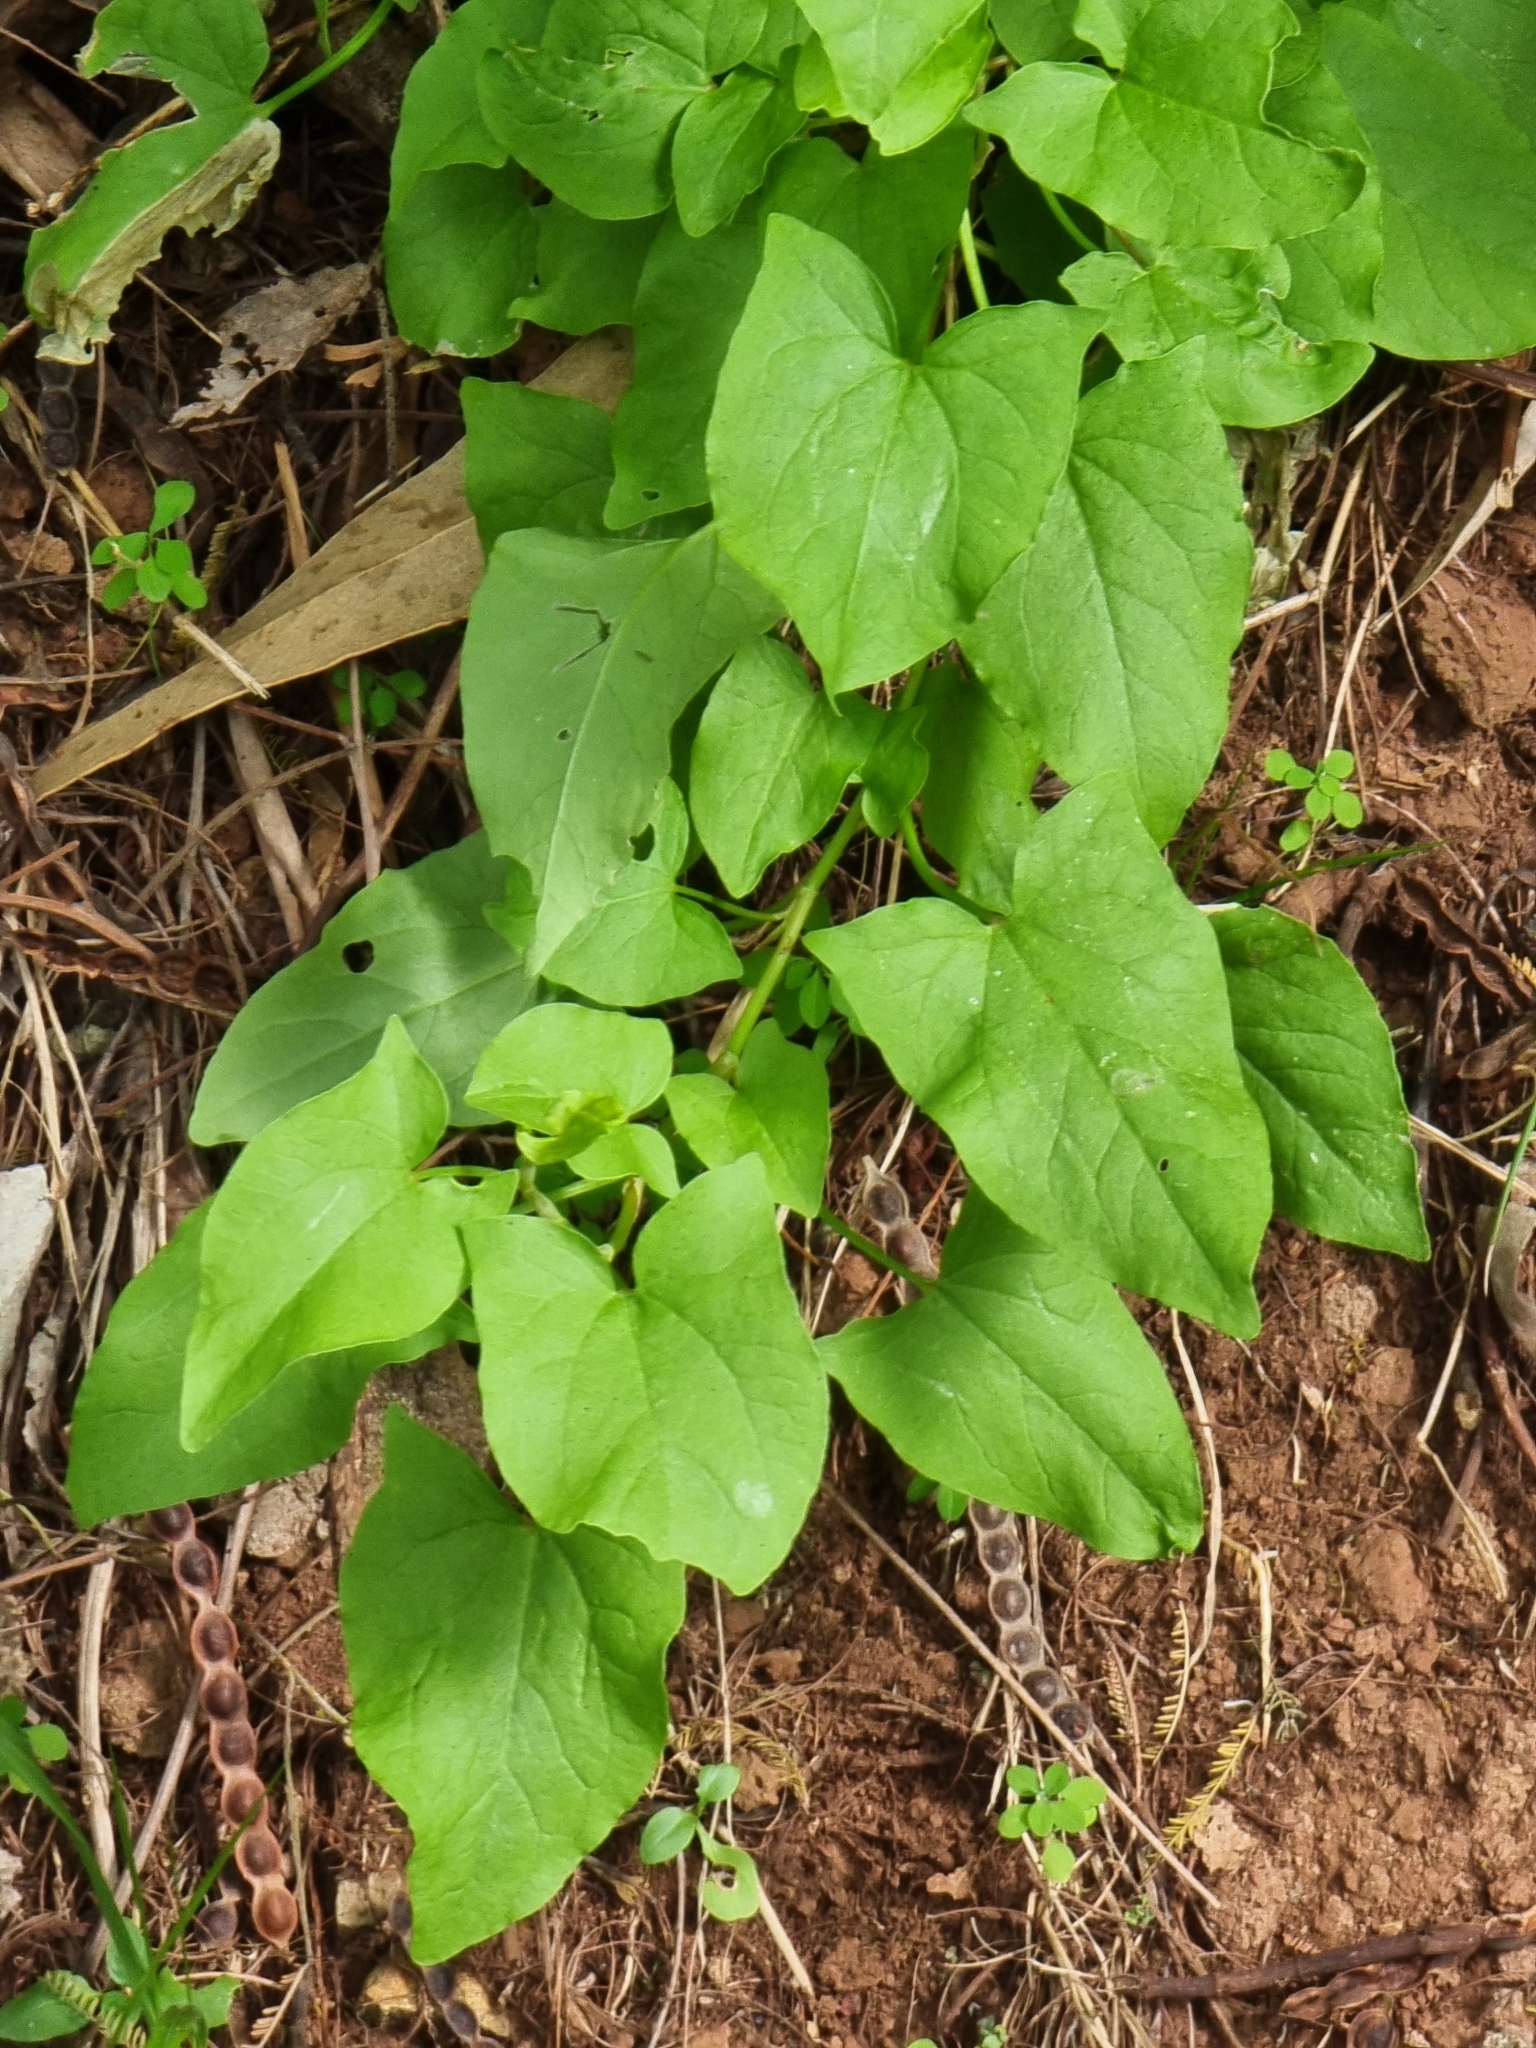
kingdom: Plantae
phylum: Tracheophyta
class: Magnoliopsida
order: Caryophyllales
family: Polygonaceae
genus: Rumex
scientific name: Rumex maderensis
